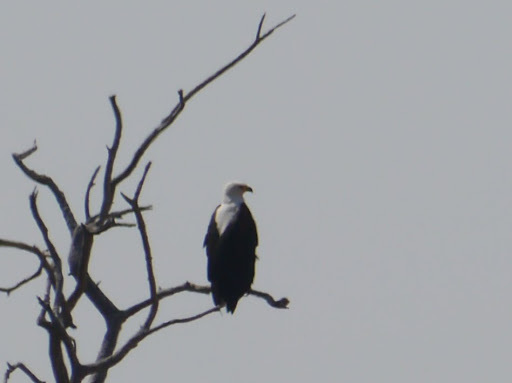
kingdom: Animalia
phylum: Chordata
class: Aves
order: Accipitriformes
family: Accipitridae
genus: Haliaeetus
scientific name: Haliaeetus vocifer
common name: African fish eagle
